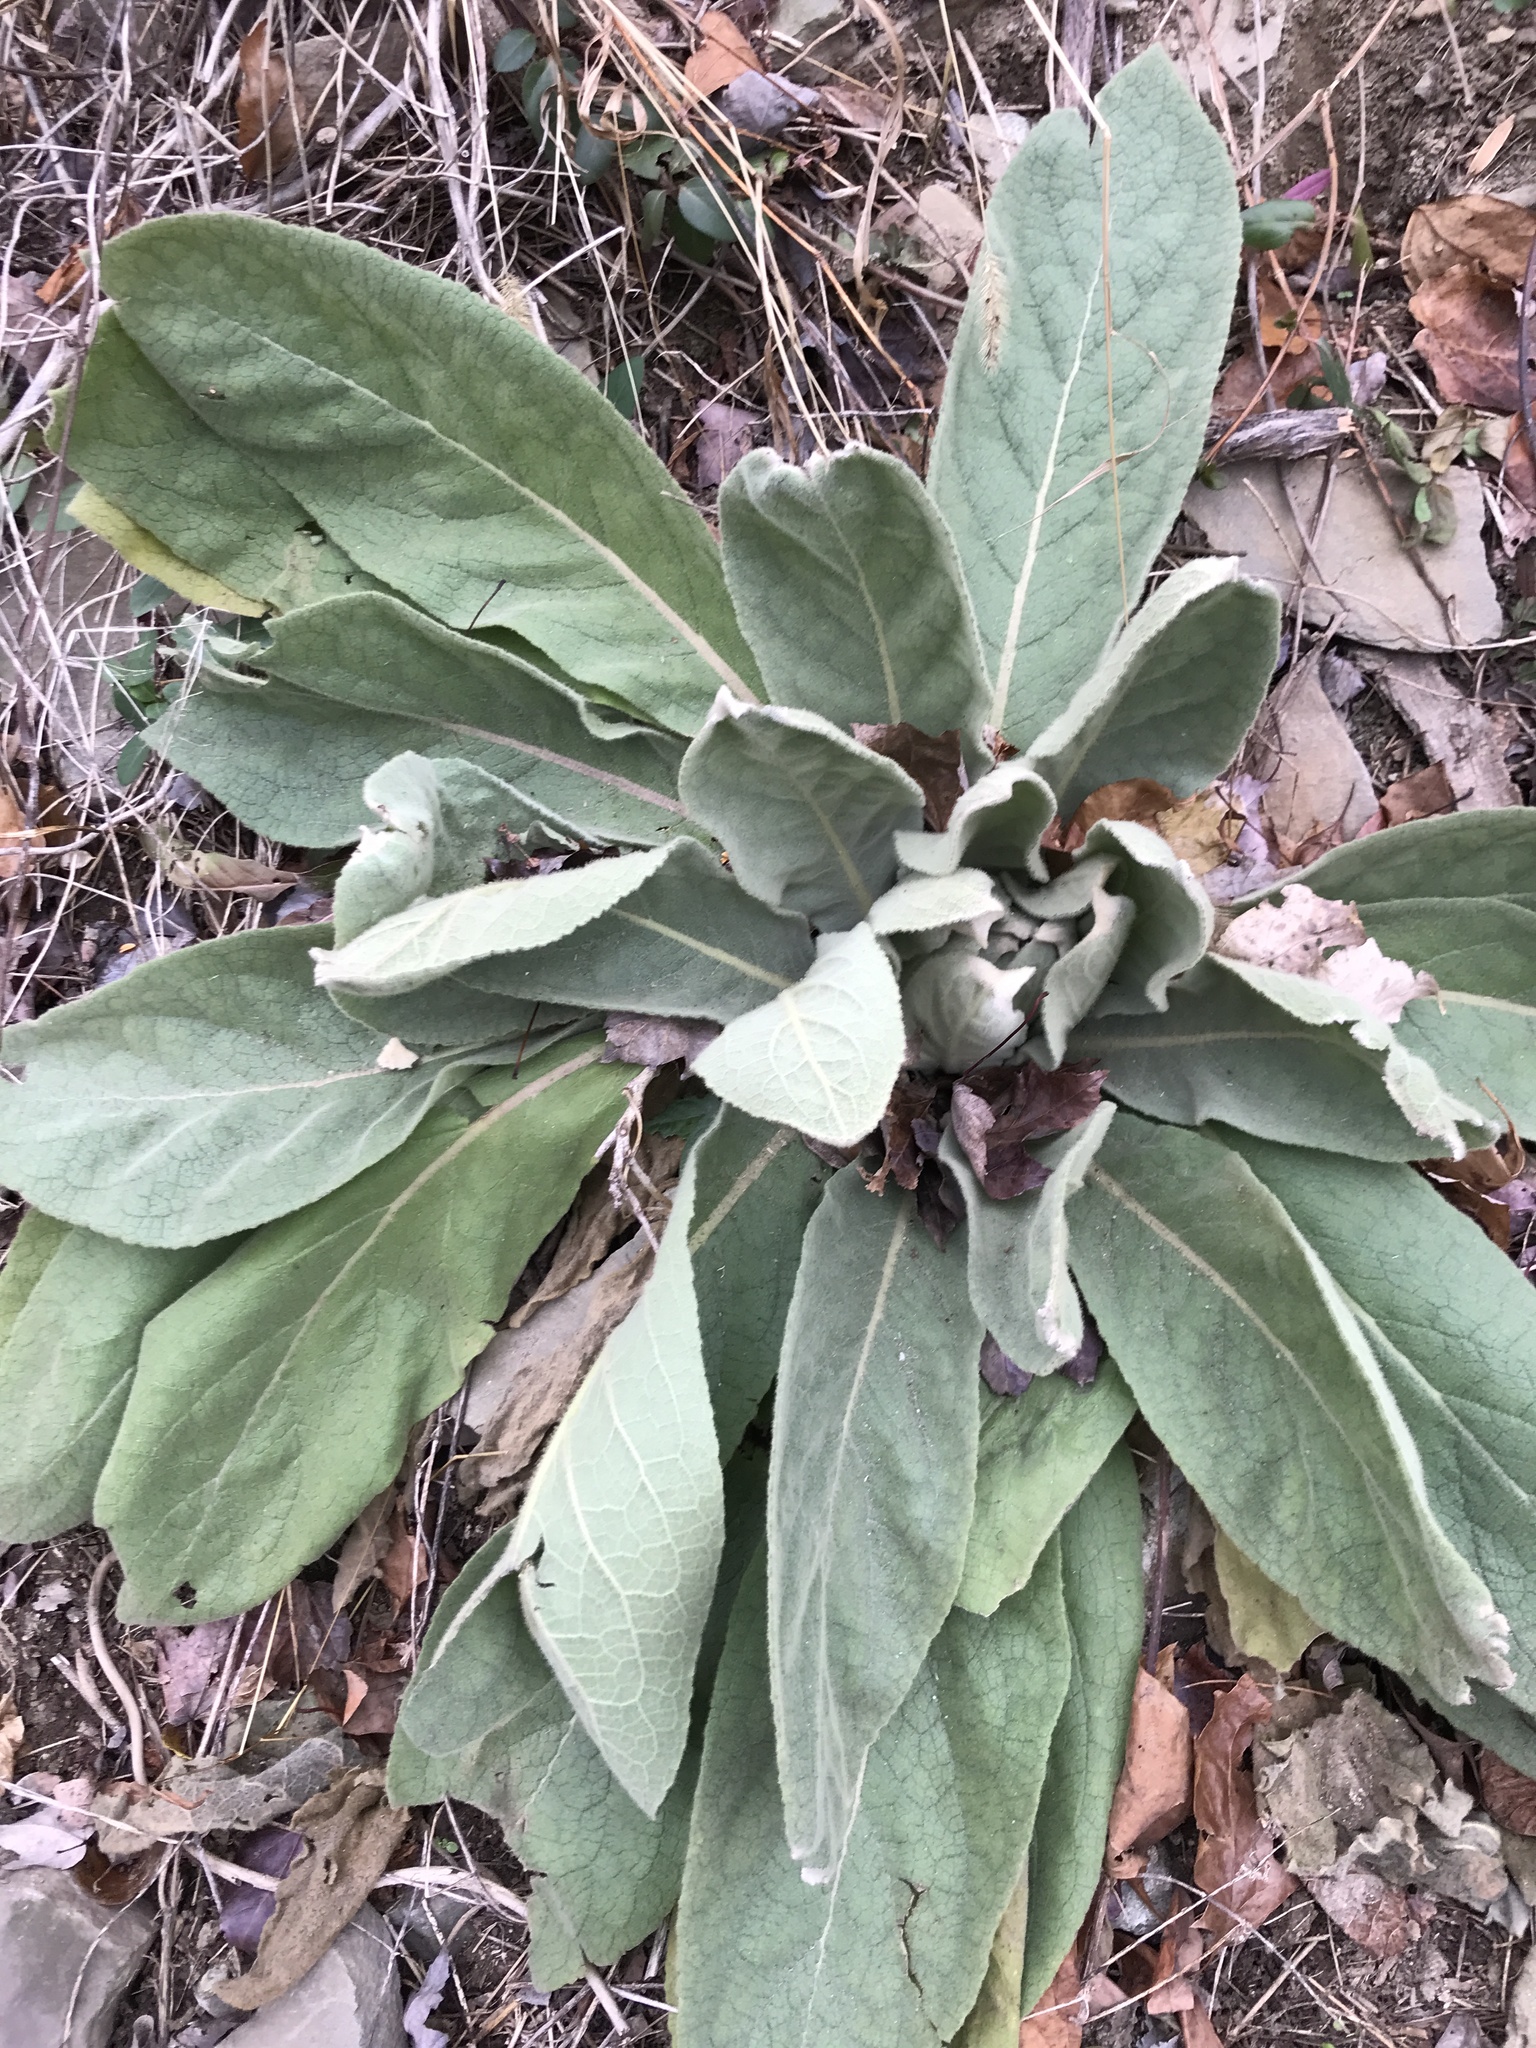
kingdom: Plantae
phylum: Tracheophyta
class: Magnoliopsida
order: Lamiales
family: Scrophulariaceae
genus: Verbascum
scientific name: Verbascum thapsus
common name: Common mullein
